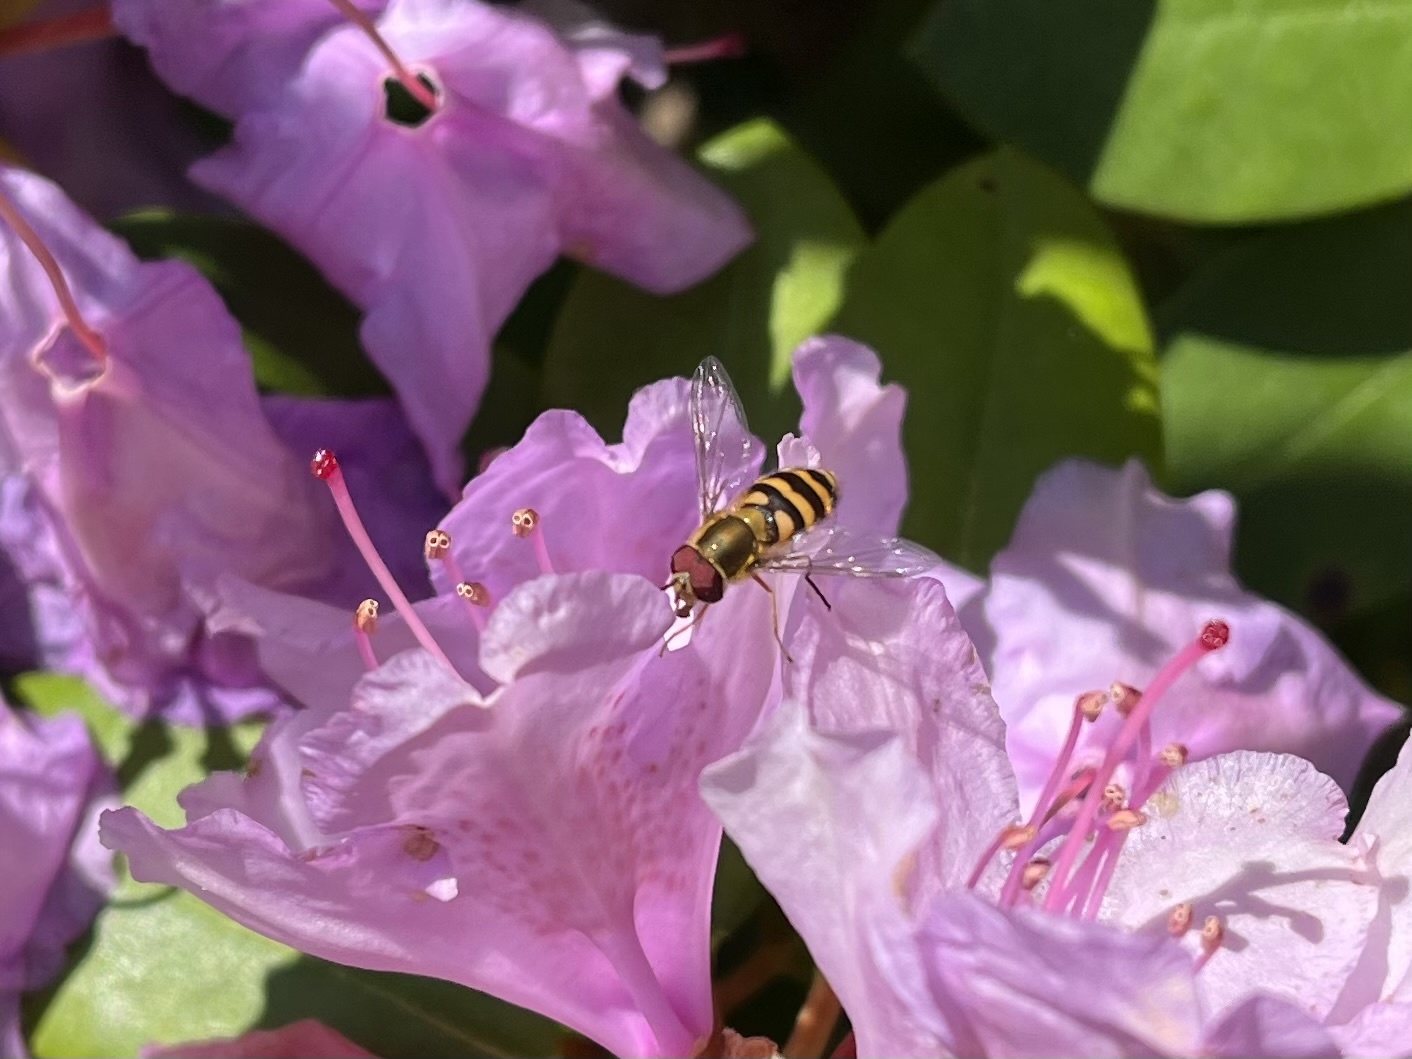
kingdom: Animalia
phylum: Arthropoda
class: Insecta
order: Diptera
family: Syrphidae
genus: Syrphus
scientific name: Syrphus
